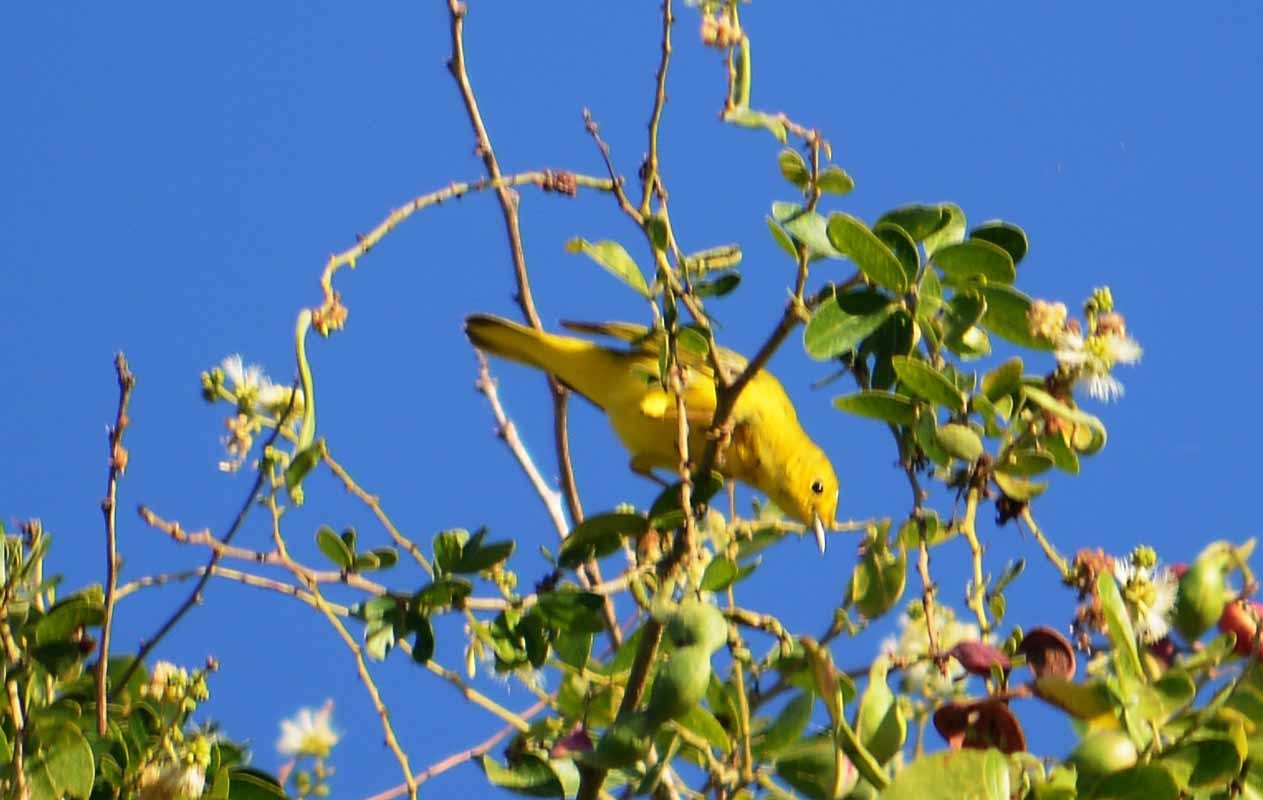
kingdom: Animalia
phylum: Chordata
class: Aves
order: Passeriformes
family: Parulidae
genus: Setophaga
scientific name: Setophaga petechia
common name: Yellow warbler
